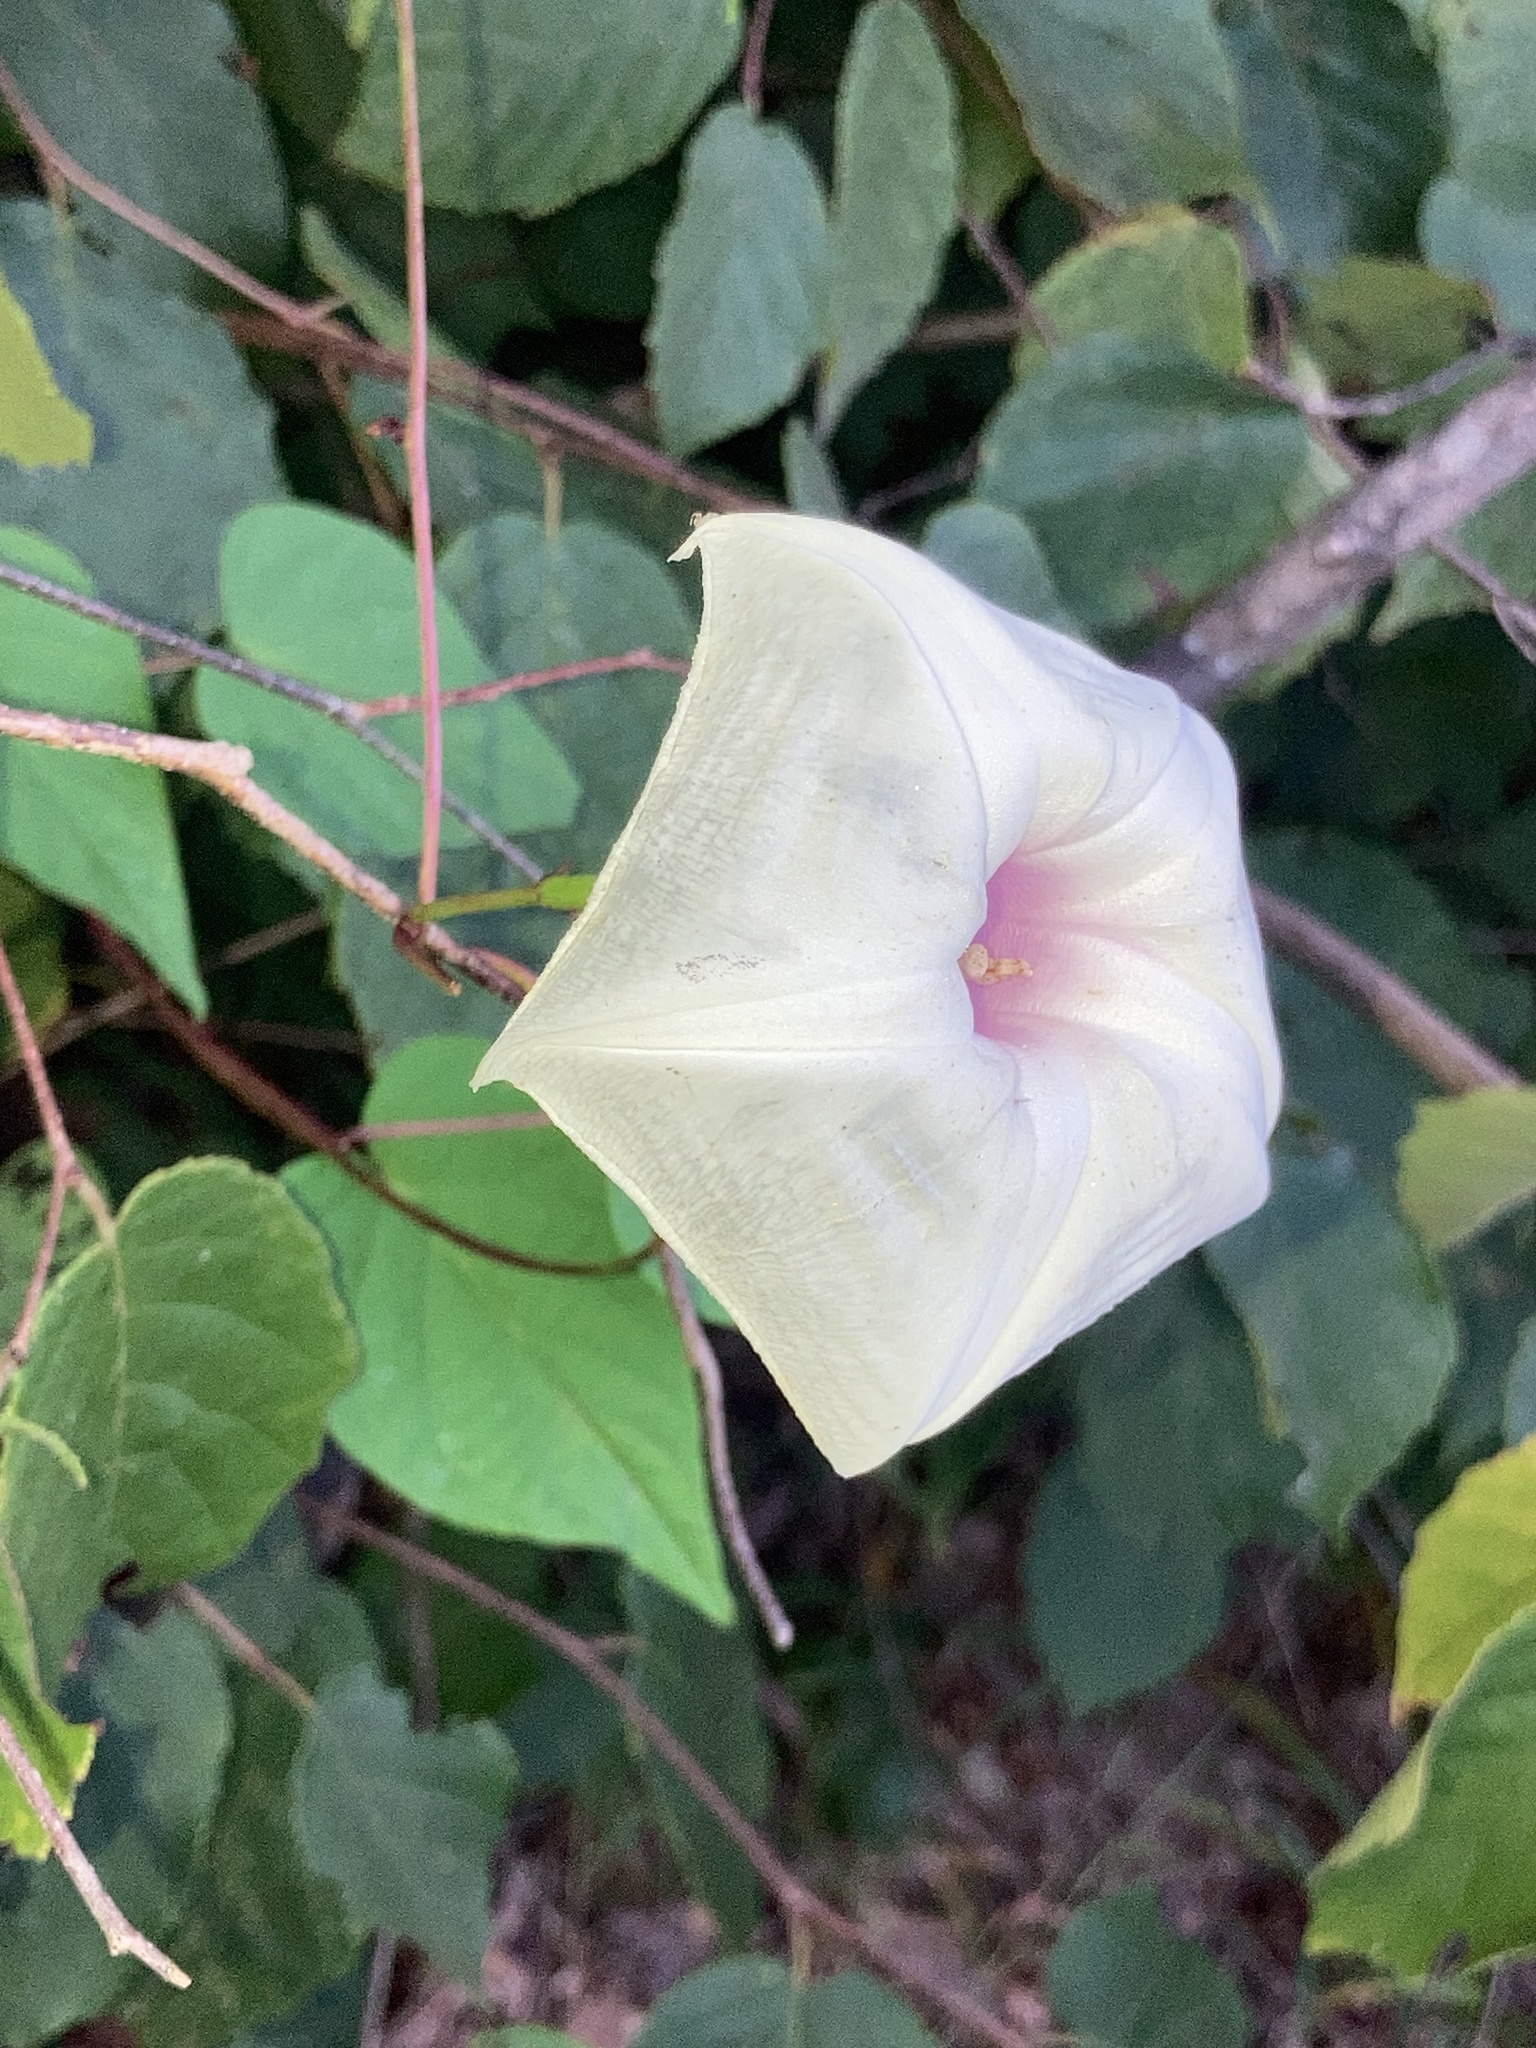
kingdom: Plantae
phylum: Tracheophyta
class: Magnoliopsida
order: Solanales
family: Convolvulaceae
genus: Ipomoea
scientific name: Ipomoea pandurata
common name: Man-of-the-earth
